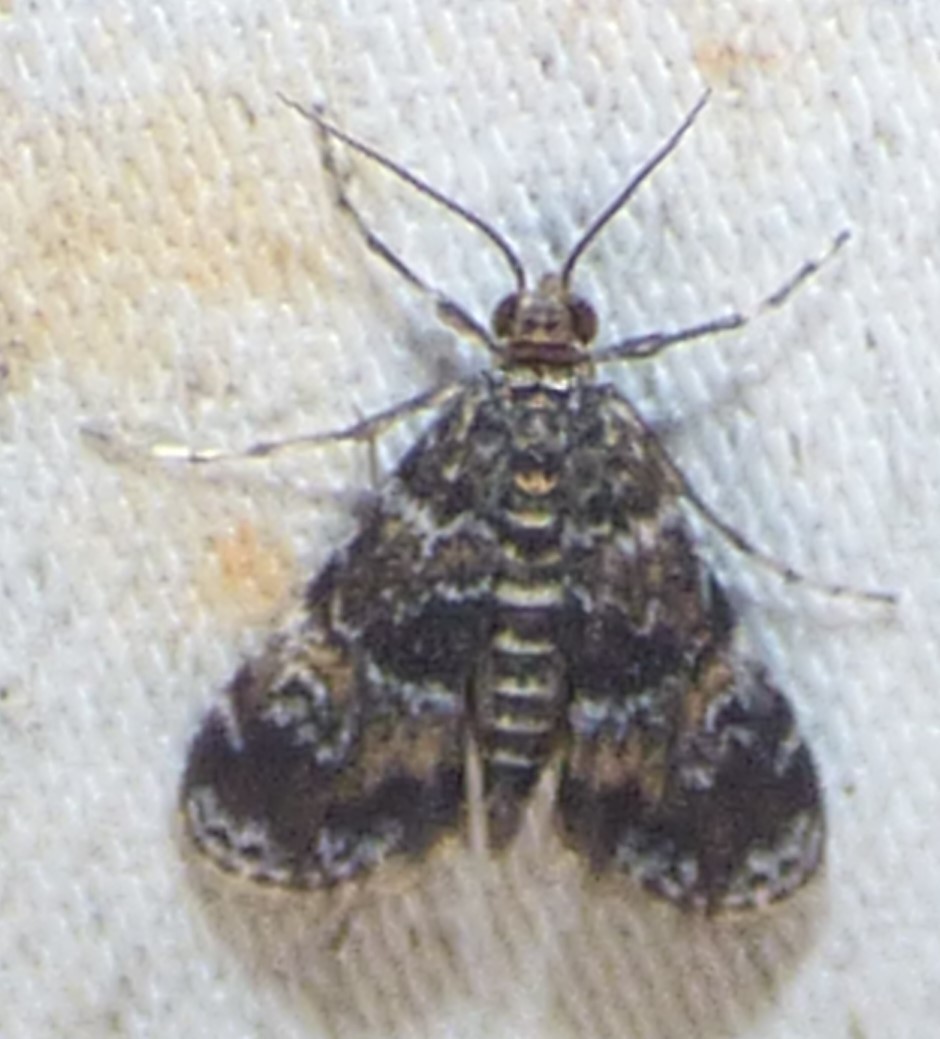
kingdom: Animalia
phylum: Arthropoda
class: Insecta
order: Lepidoptera
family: Crambidae
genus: Elophila
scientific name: Elophila obliteralis
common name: Waterlily leafcutter moth
